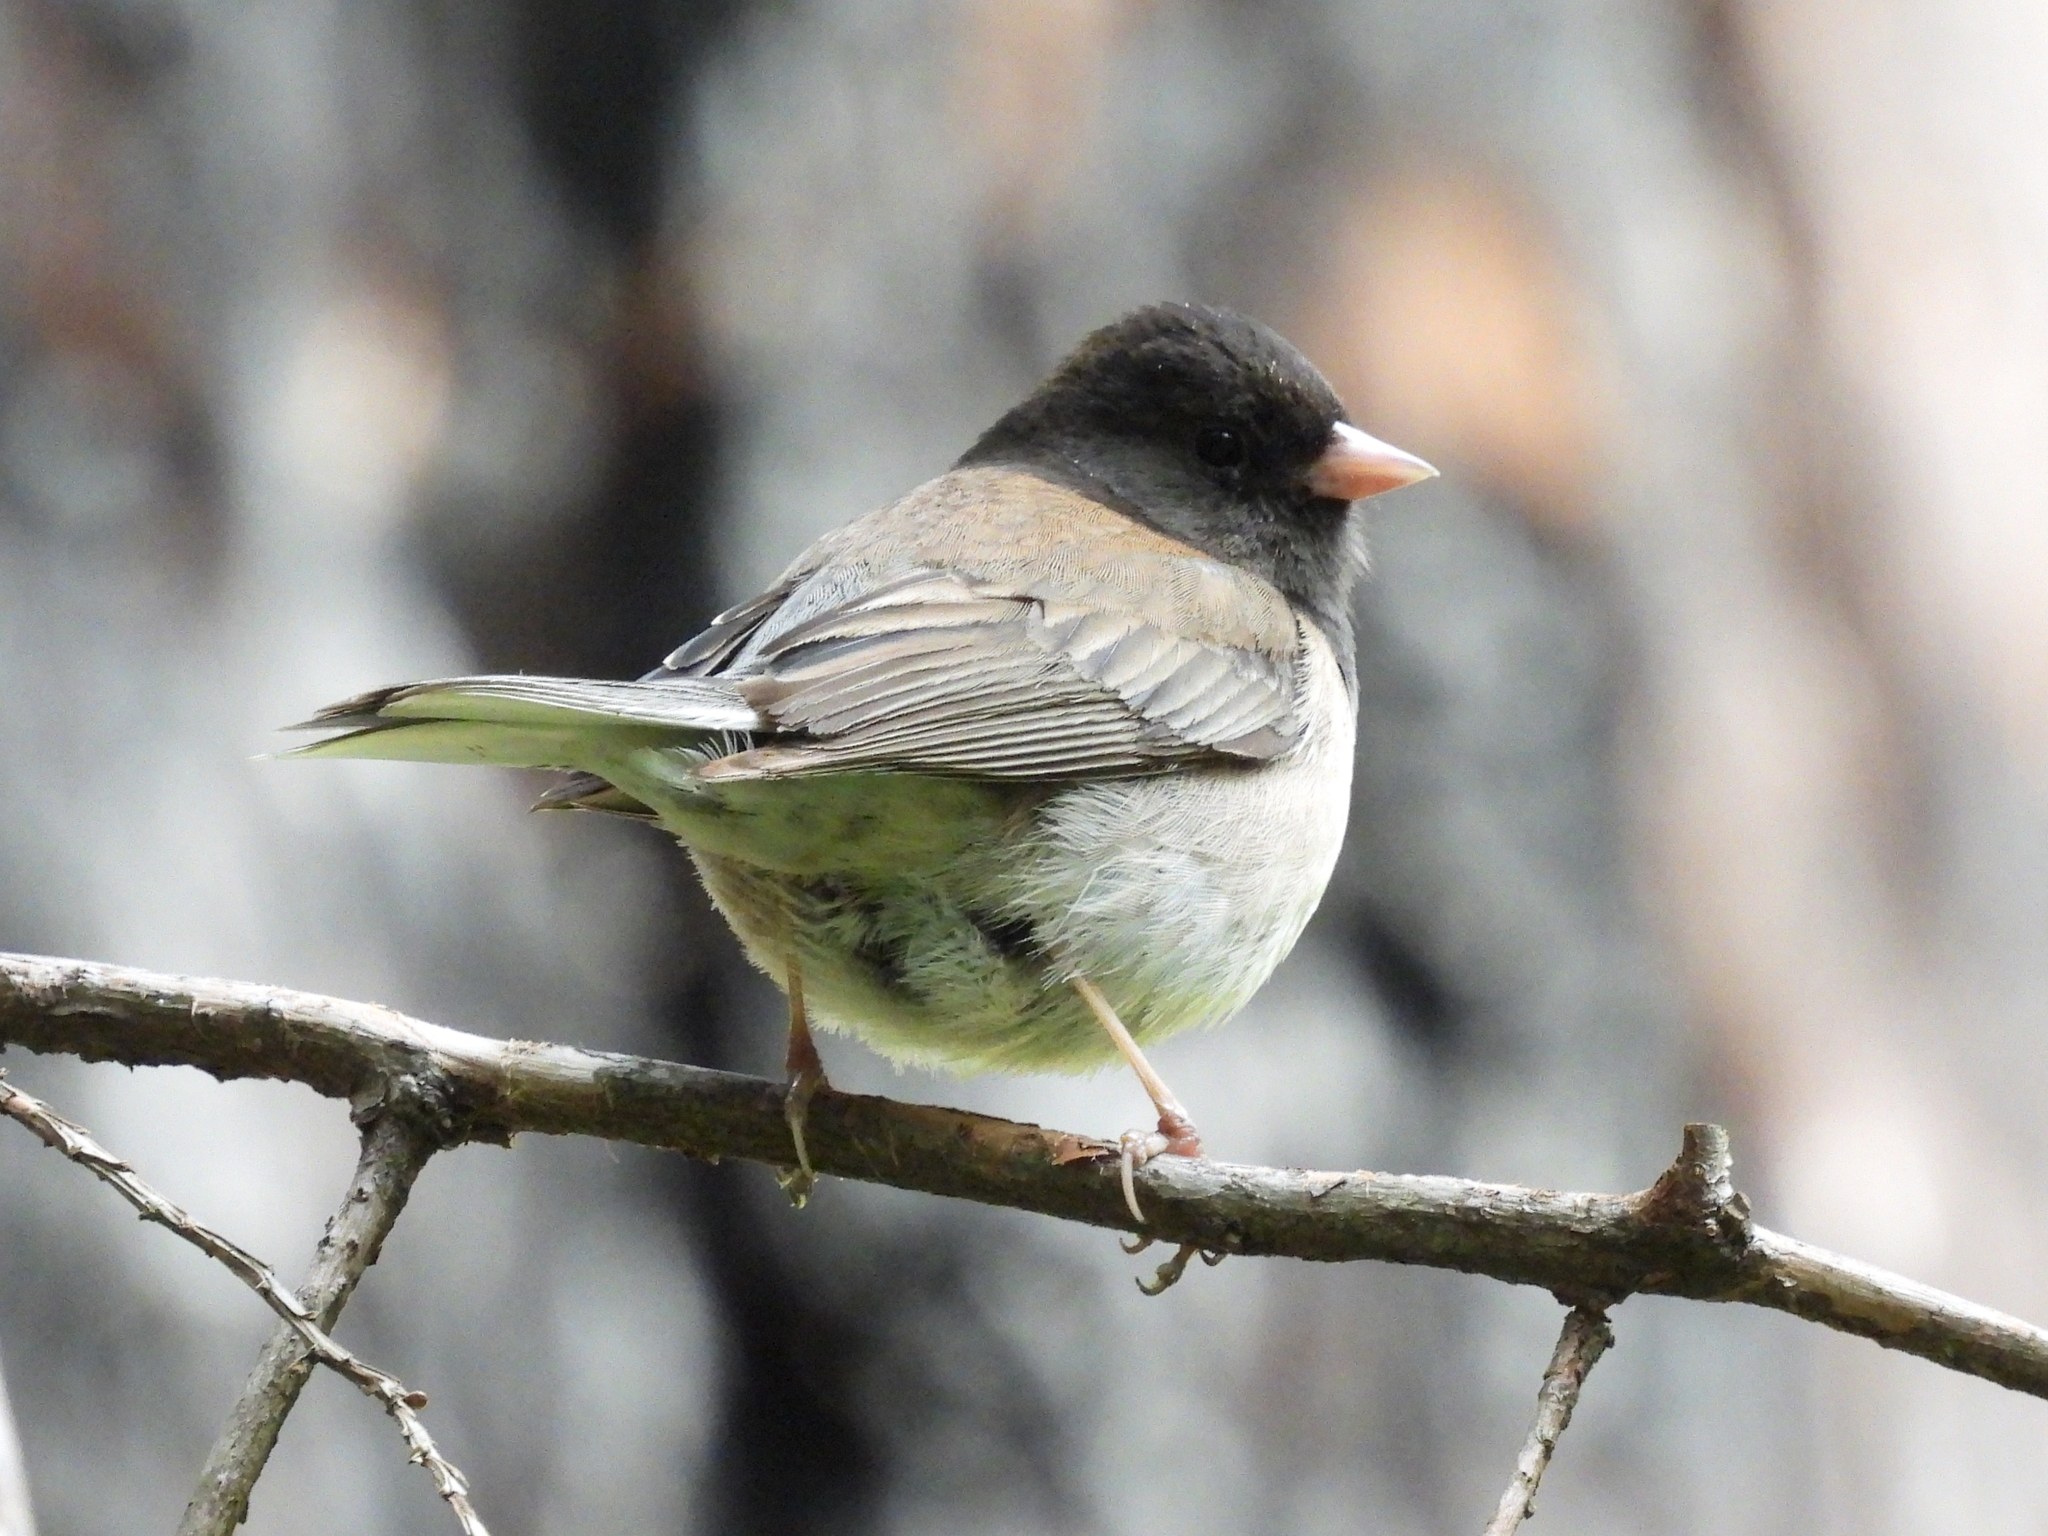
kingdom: Animalia
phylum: Chordata
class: Aves
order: Passeriformes
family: Passerellidae
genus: Junco
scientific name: Junco hyemalis
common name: Dark-eyed junco
